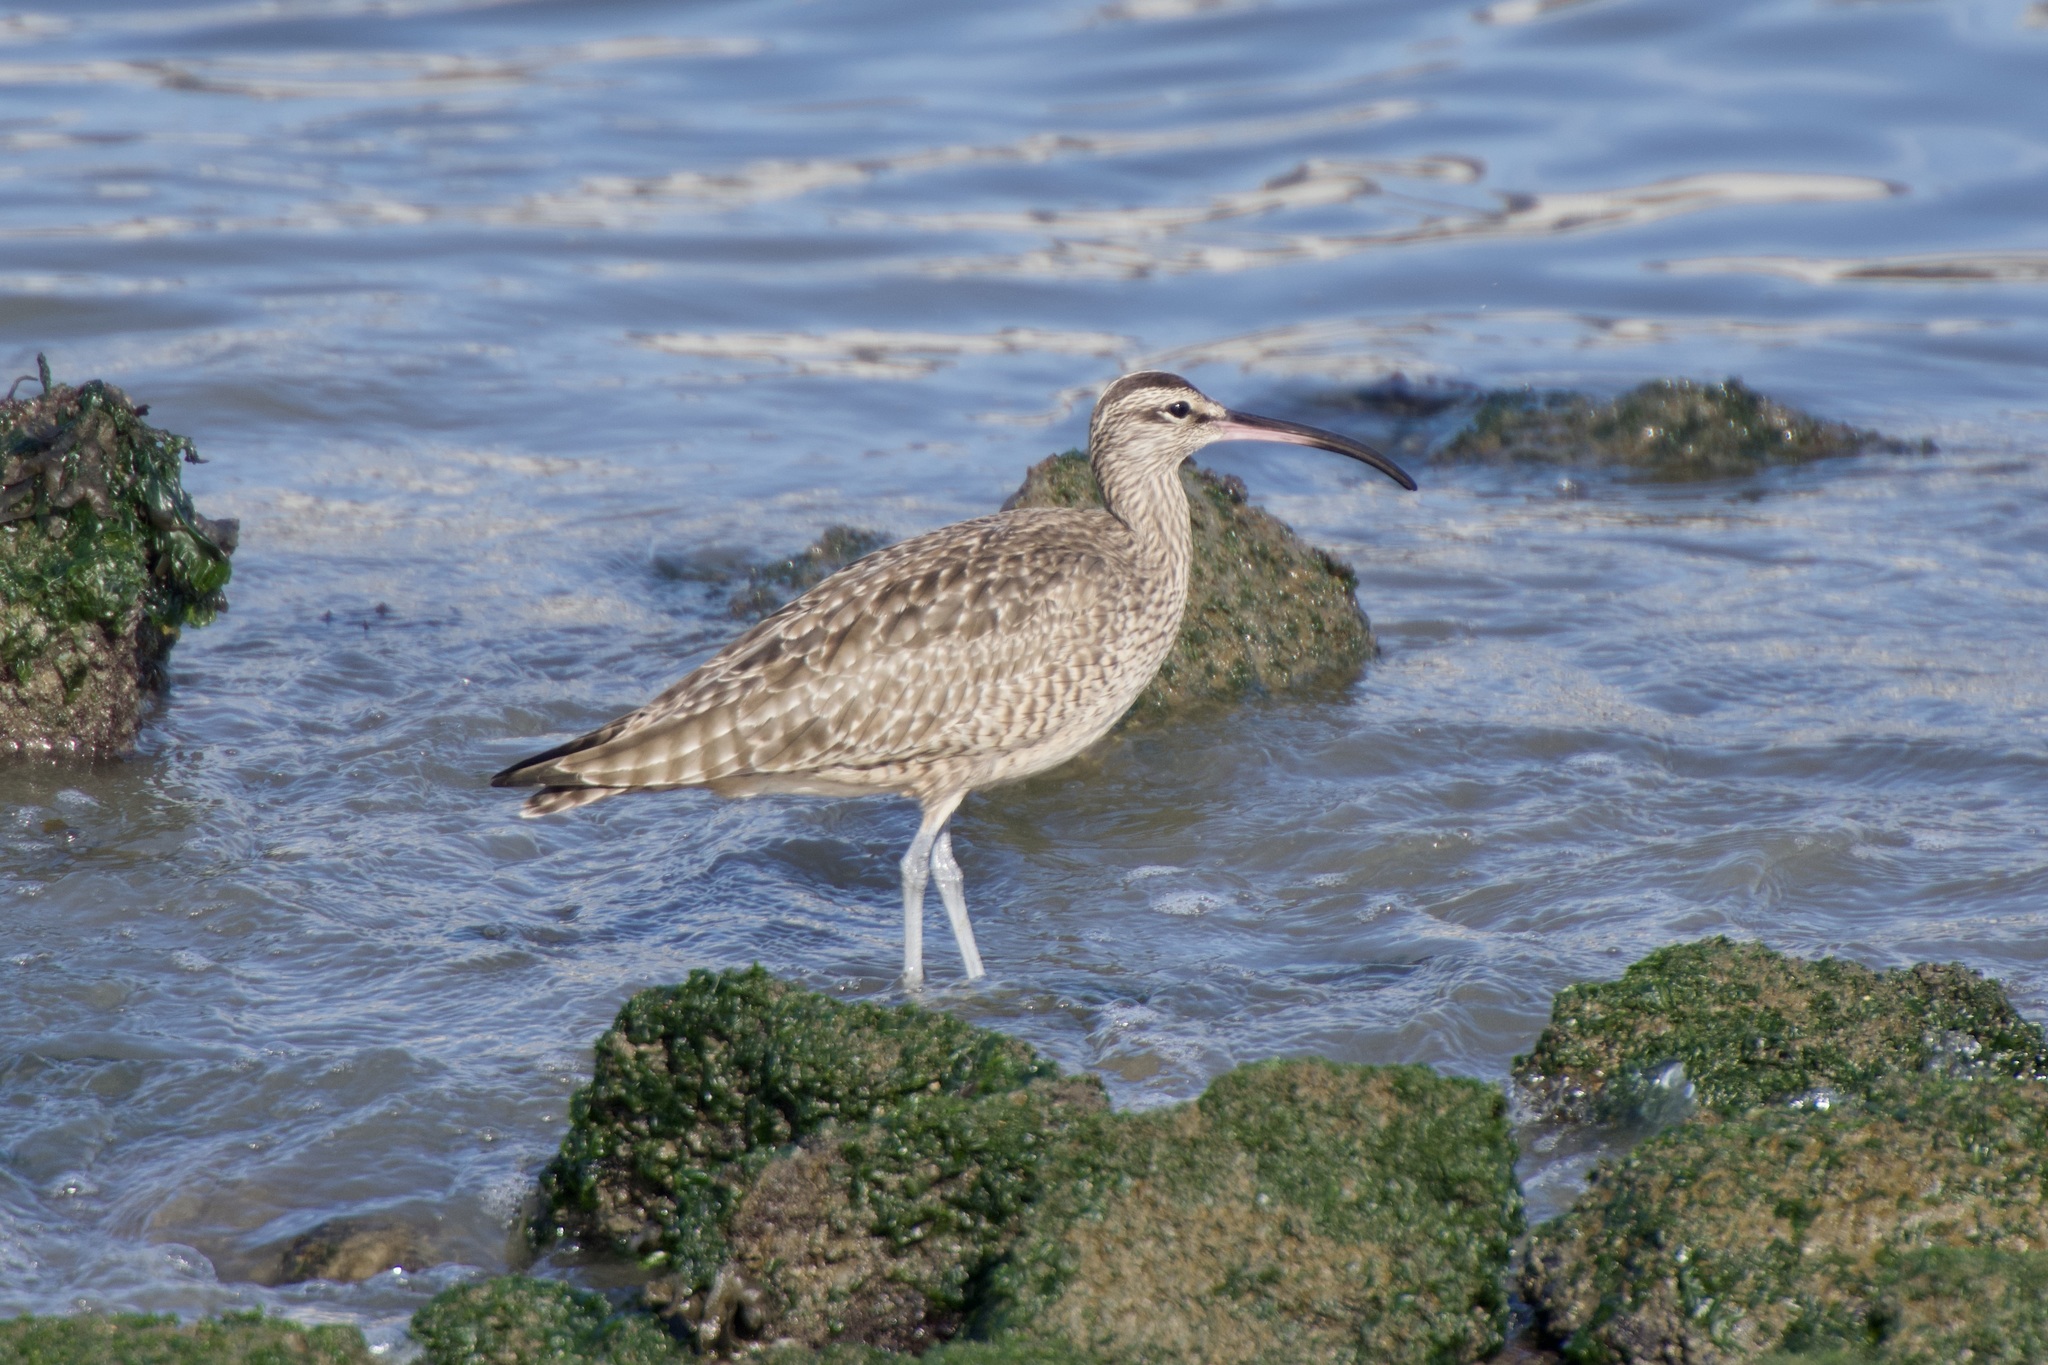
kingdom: Animalia
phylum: Chordata
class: Aves
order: Charadriiformes
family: Scolopacidae
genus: Numenius
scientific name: Numenius phaeopus
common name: Whimbrel
